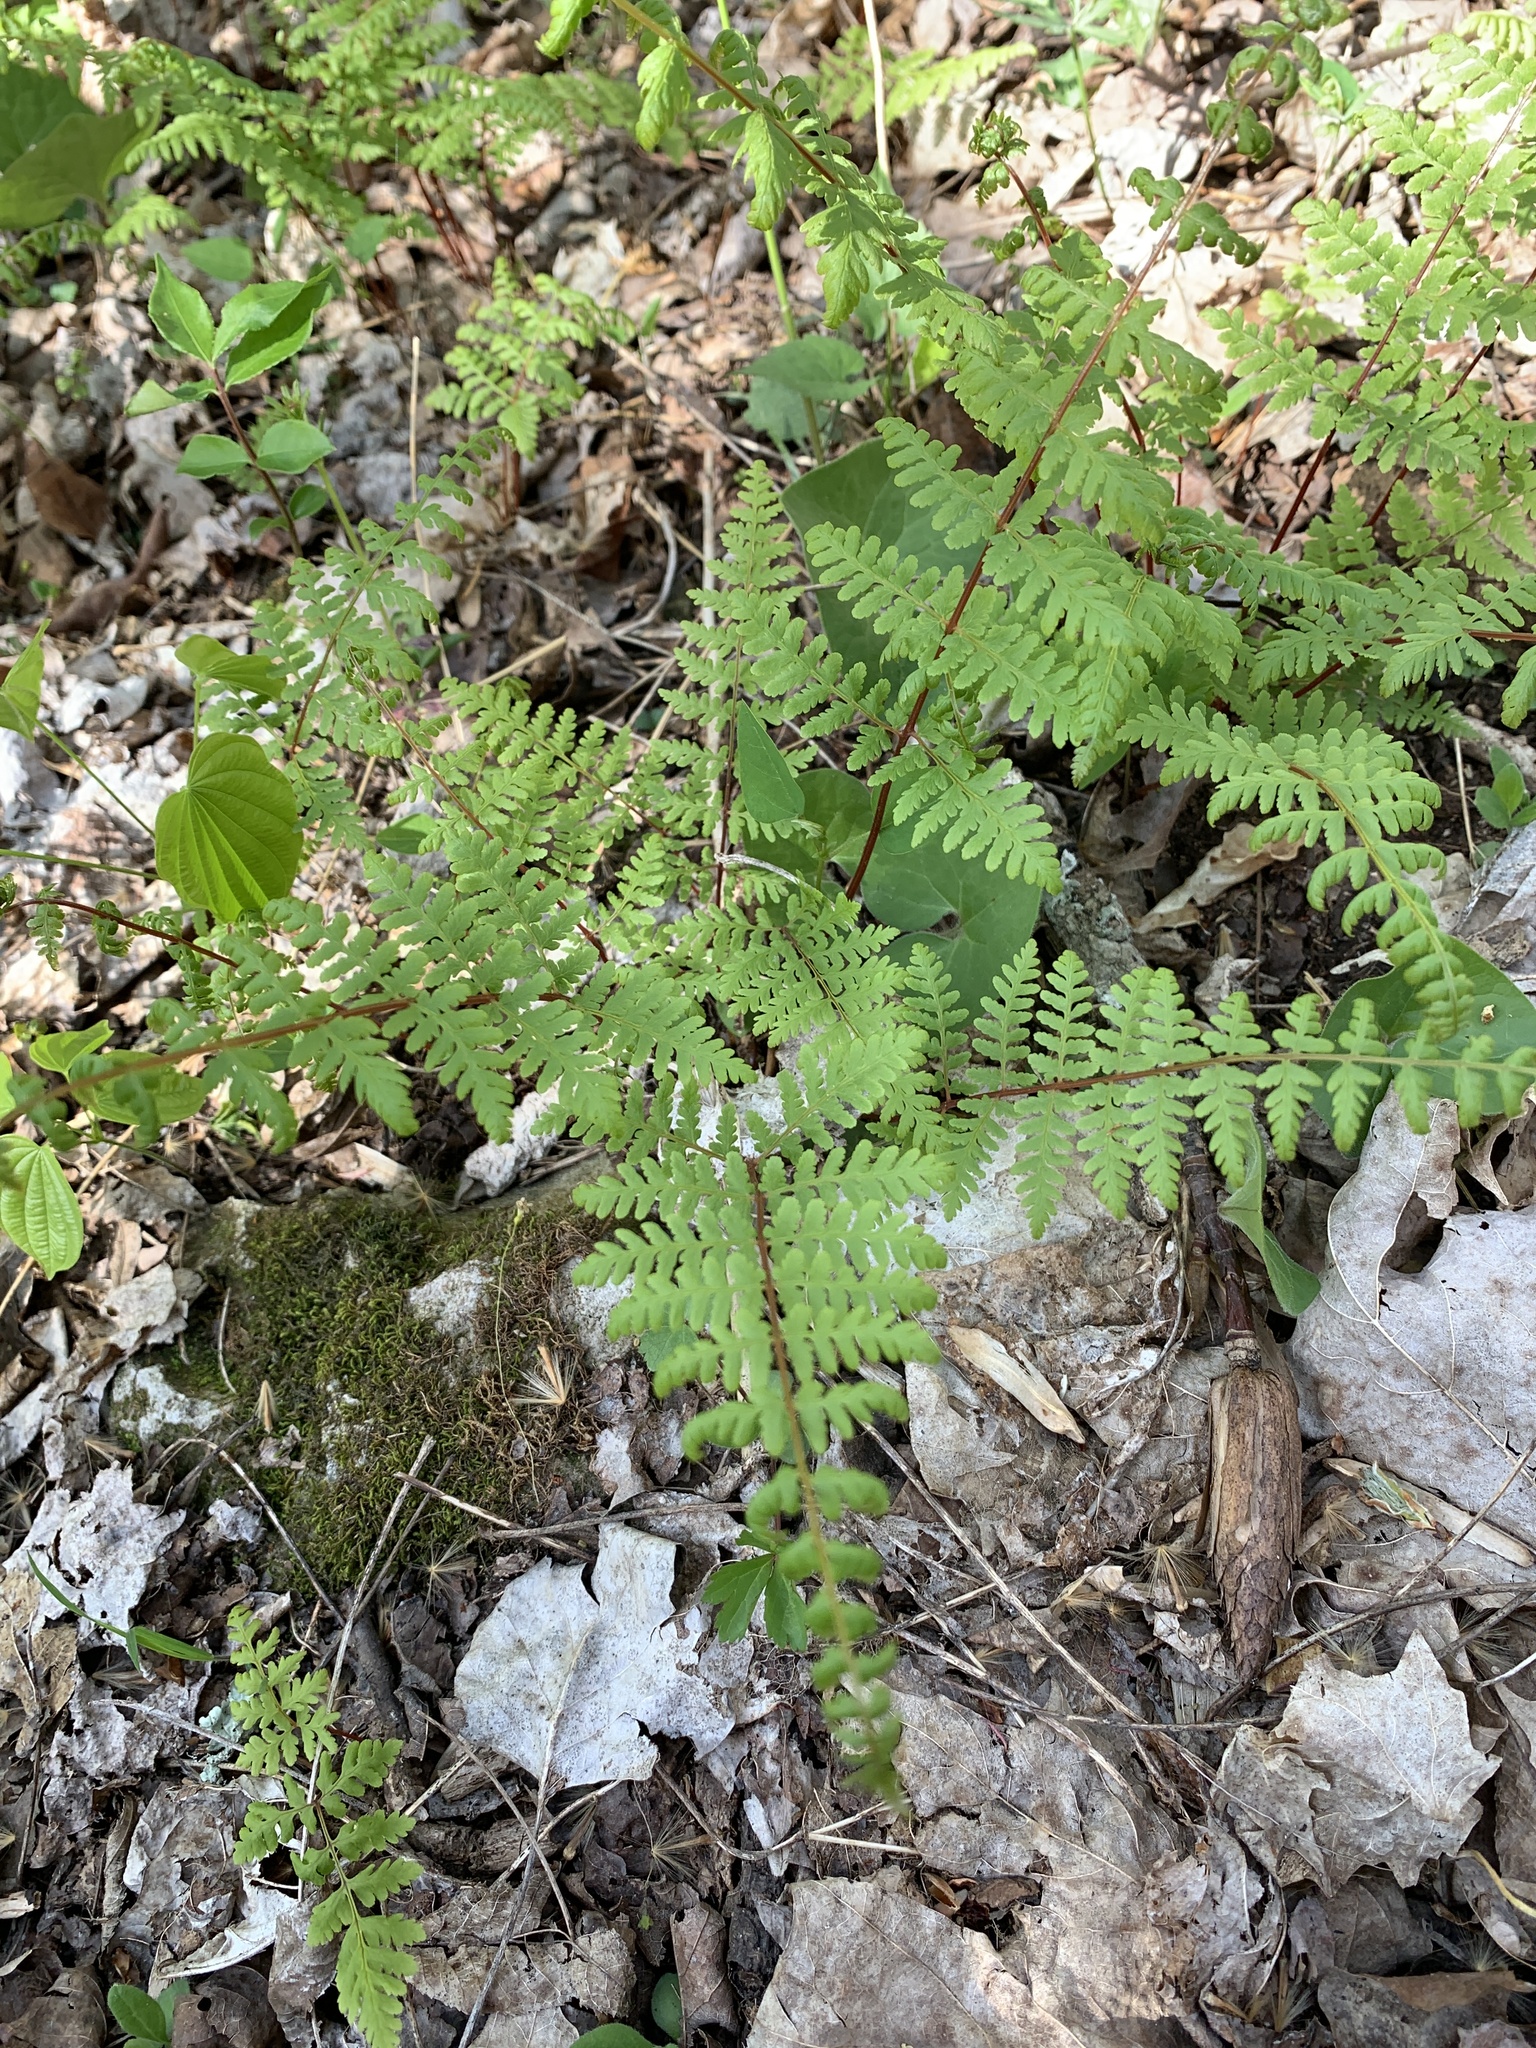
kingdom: Plantae
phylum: Tracheophyta
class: Polypodiopsida
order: Polypodiales
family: Cystopteridaceae
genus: Cystopteris
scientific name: Cystopteris bulbifera
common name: Bulblet bladder fern
